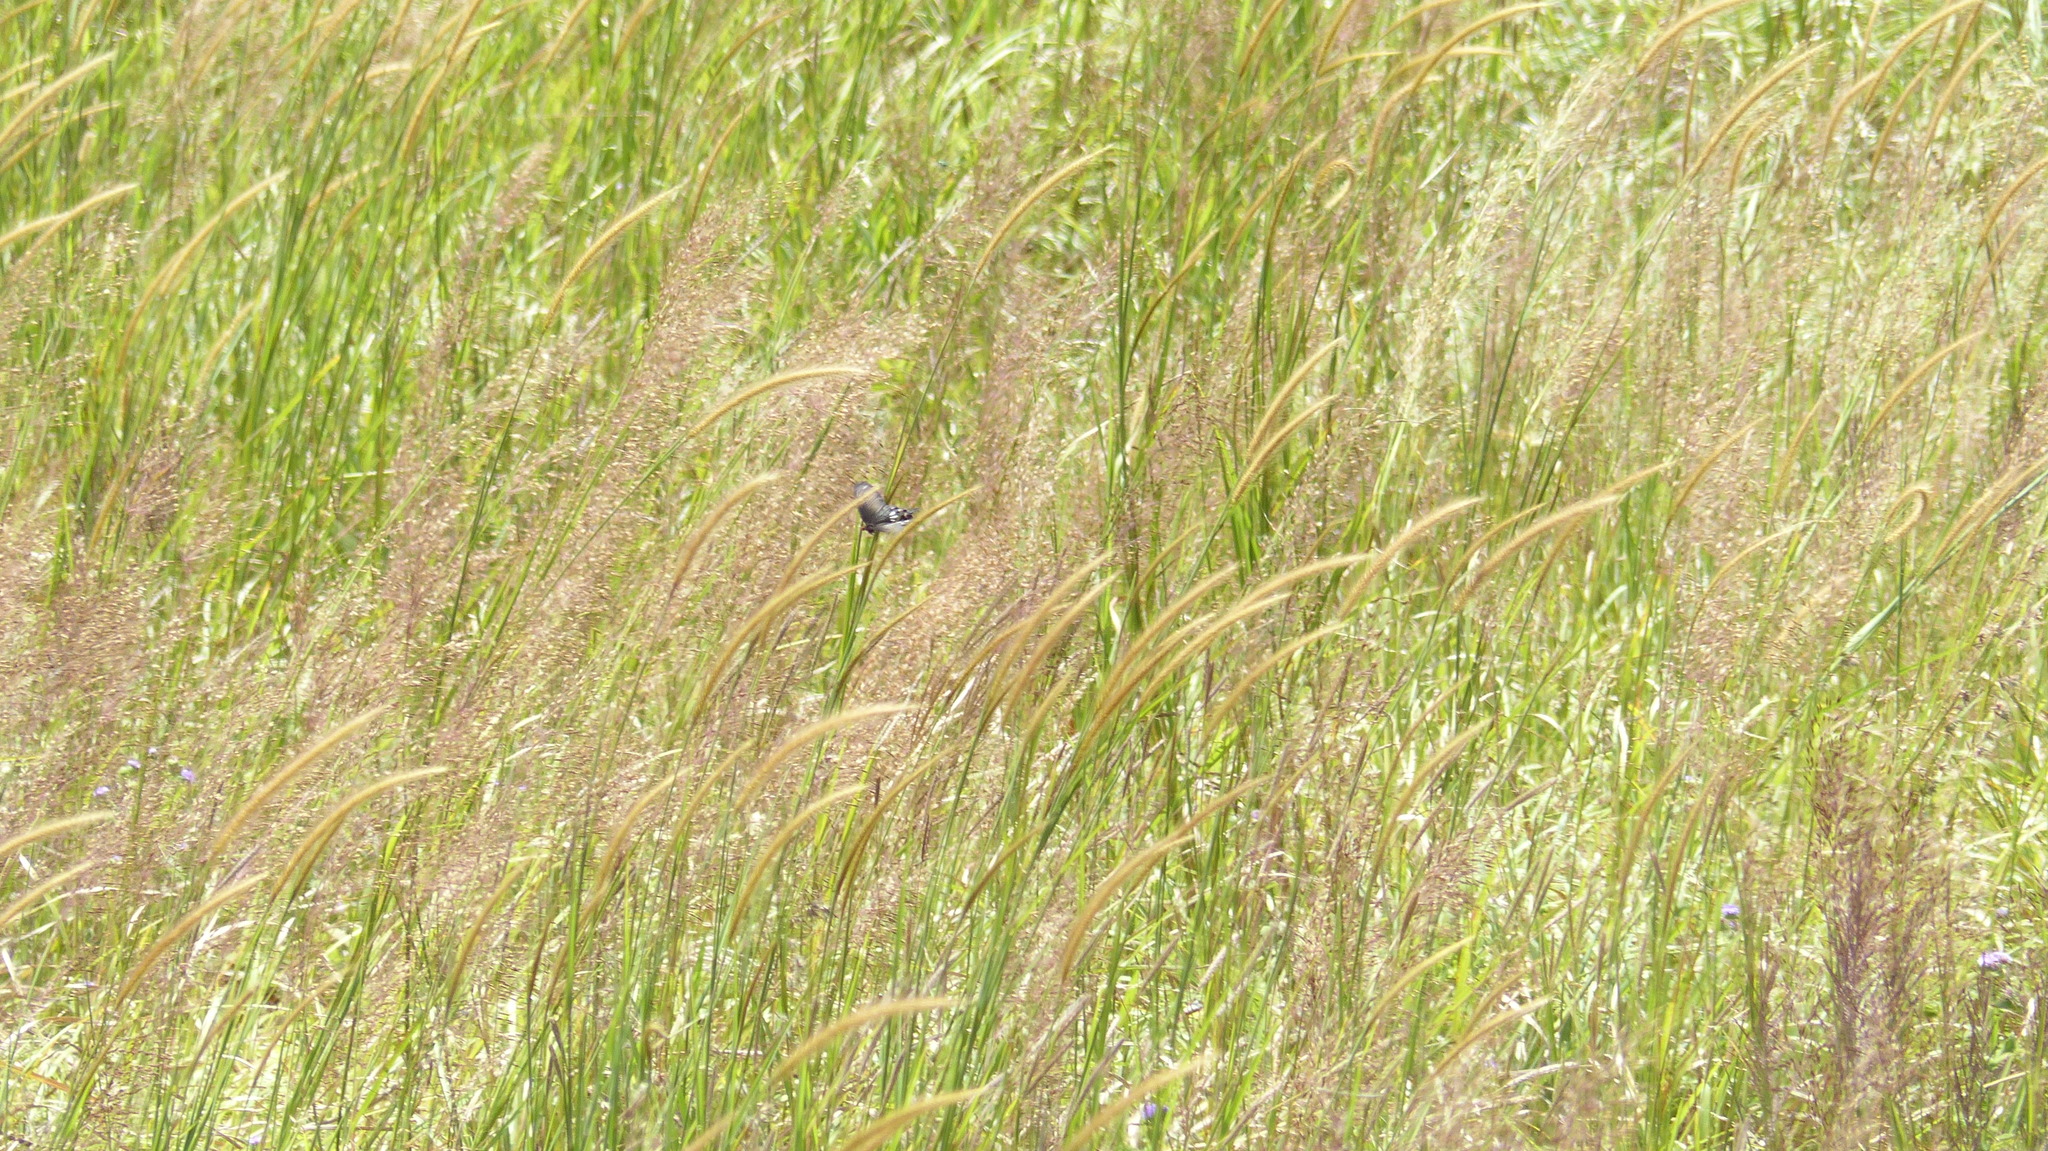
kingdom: Animalia
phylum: Arthropoda
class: Insecta
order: Lepidoptera
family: Papilionidae
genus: Pachliopta
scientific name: Pachliopta pandiyana
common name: Malabar rose
